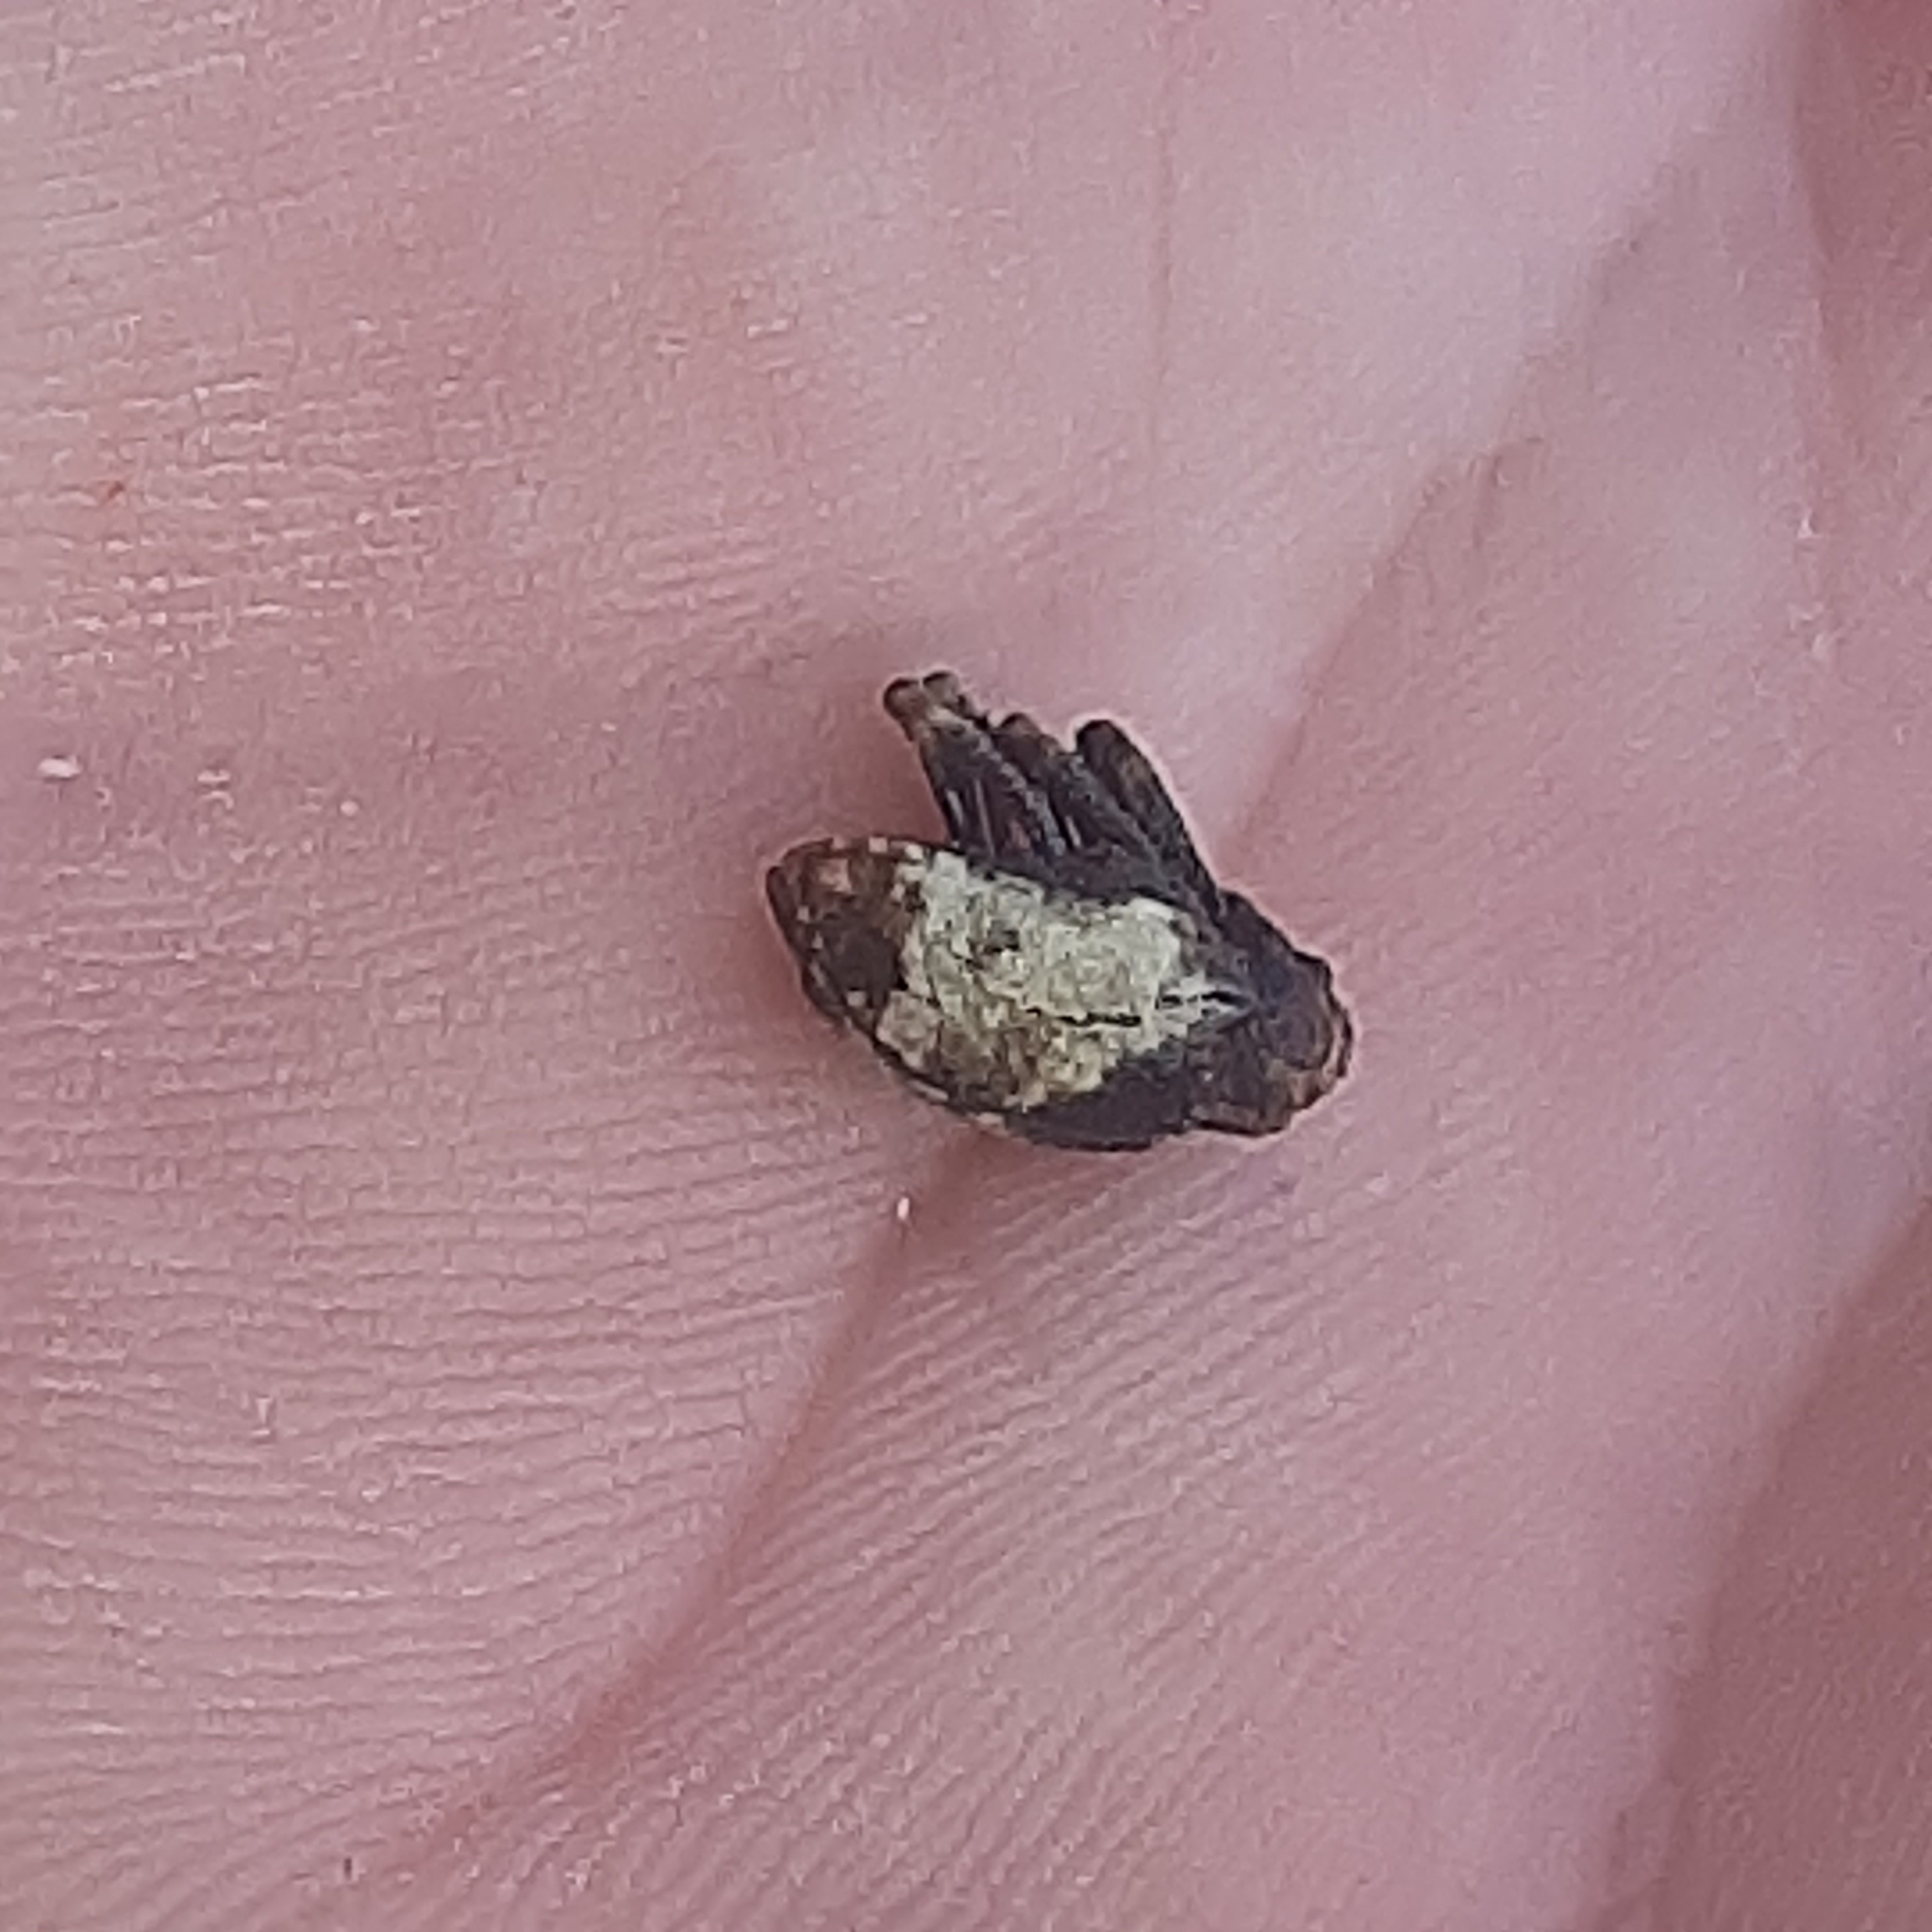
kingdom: Animalia
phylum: Arthropoda
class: Insecta
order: Coleoptera
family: Curculionidae
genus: Cryptorrhynchus
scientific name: Cryptorrhynchus melastomae
